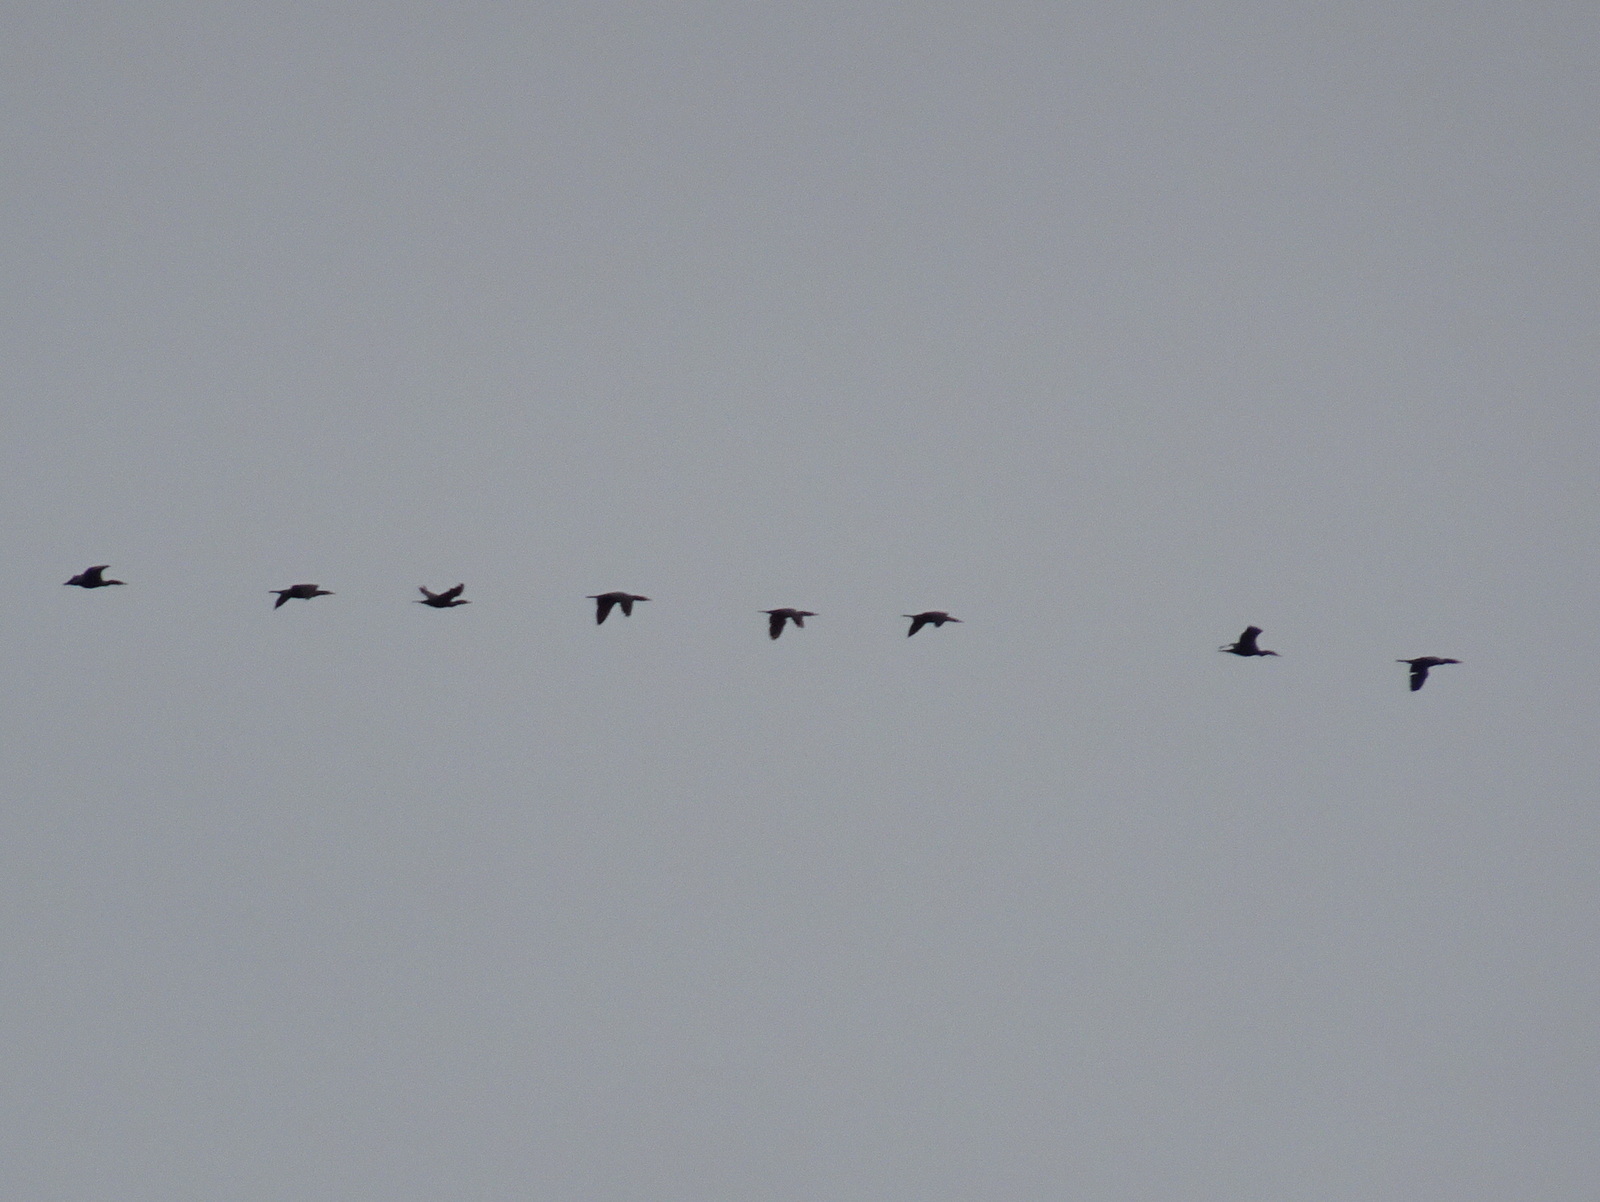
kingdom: Animalia
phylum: Chordata
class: Aves
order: Suliformes
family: Phalacrocoracidae
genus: Phalacrocorax
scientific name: Phalacrocorax auritus
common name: Double-crested cormorant
